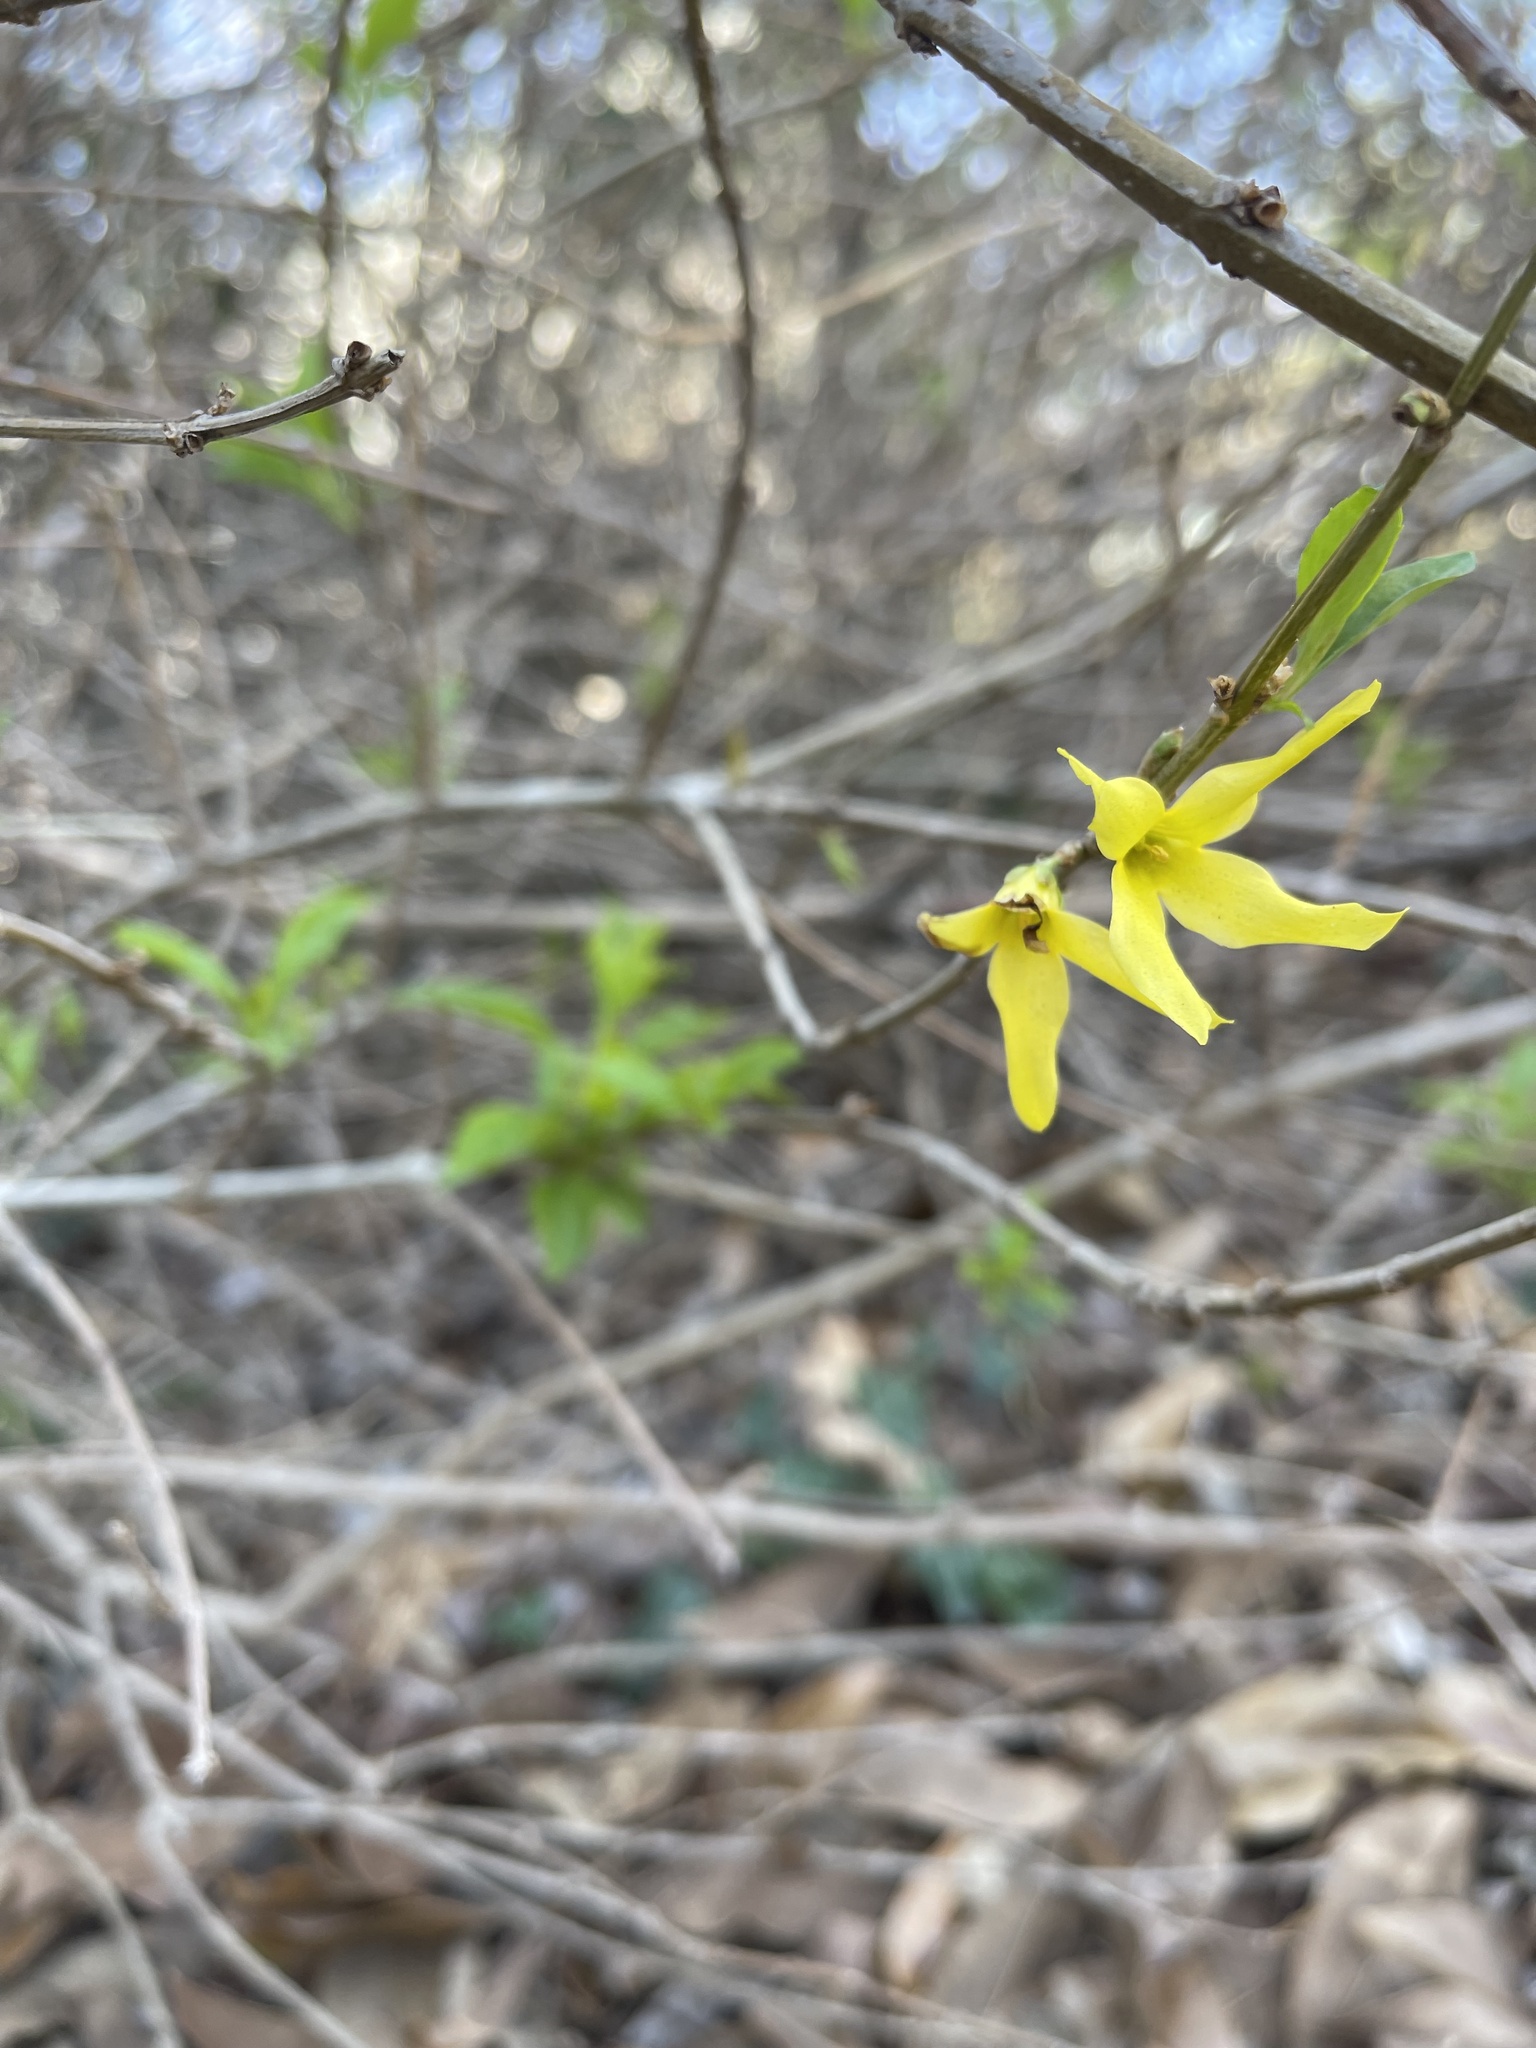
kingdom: Plantae
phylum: Tracheophyta
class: Magnoliopsida
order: Lamiales
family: Oleaceae
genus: Forsythia
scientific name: Forsythia suspensa
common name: Weeping forsythia
